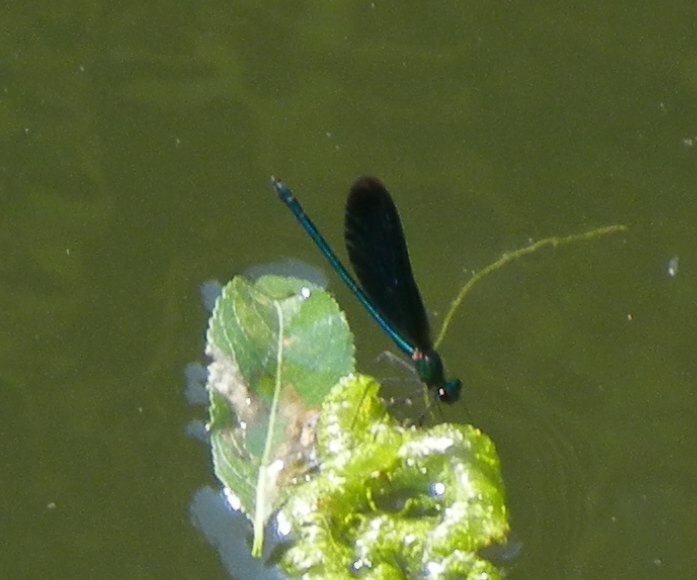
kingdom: Animalia
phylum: Arthropoda
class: Insecta
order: Odonata
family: Calopterygidae
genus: Calopteryx
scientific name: Calopteryx virgo
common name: Beautiful demoiselle
